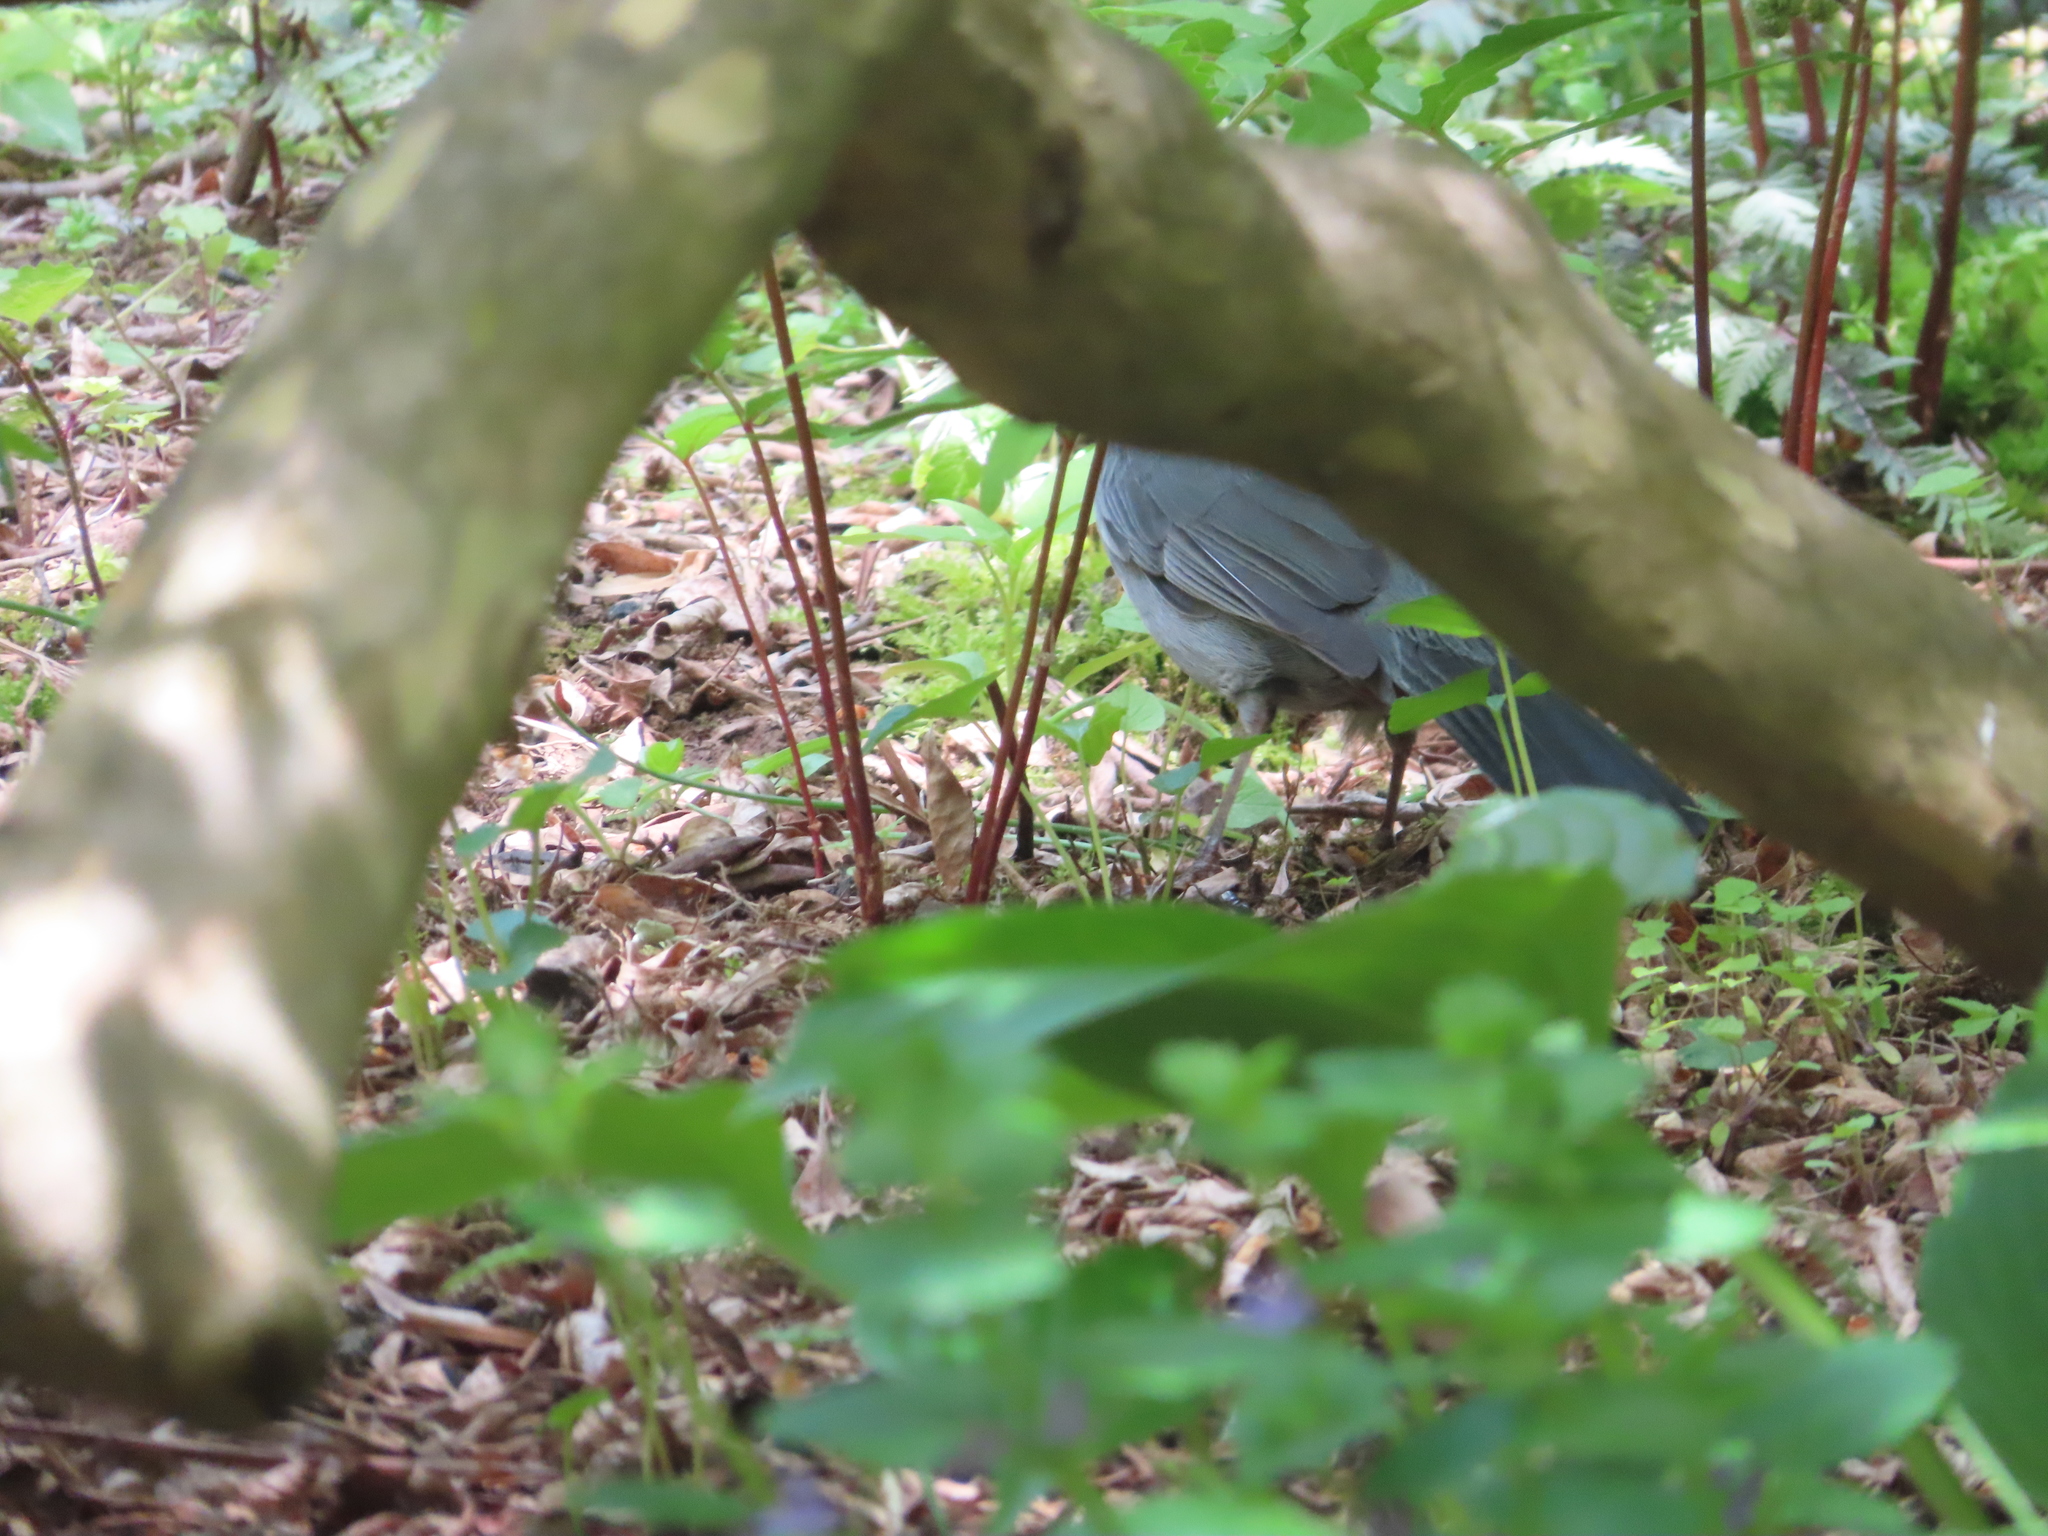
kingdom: Animalia
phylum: Chordata
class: Aves
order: Passeriformes
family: Mimidae
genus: Dumetella
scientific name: Dumetella carolinensis
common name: Gray catbird
